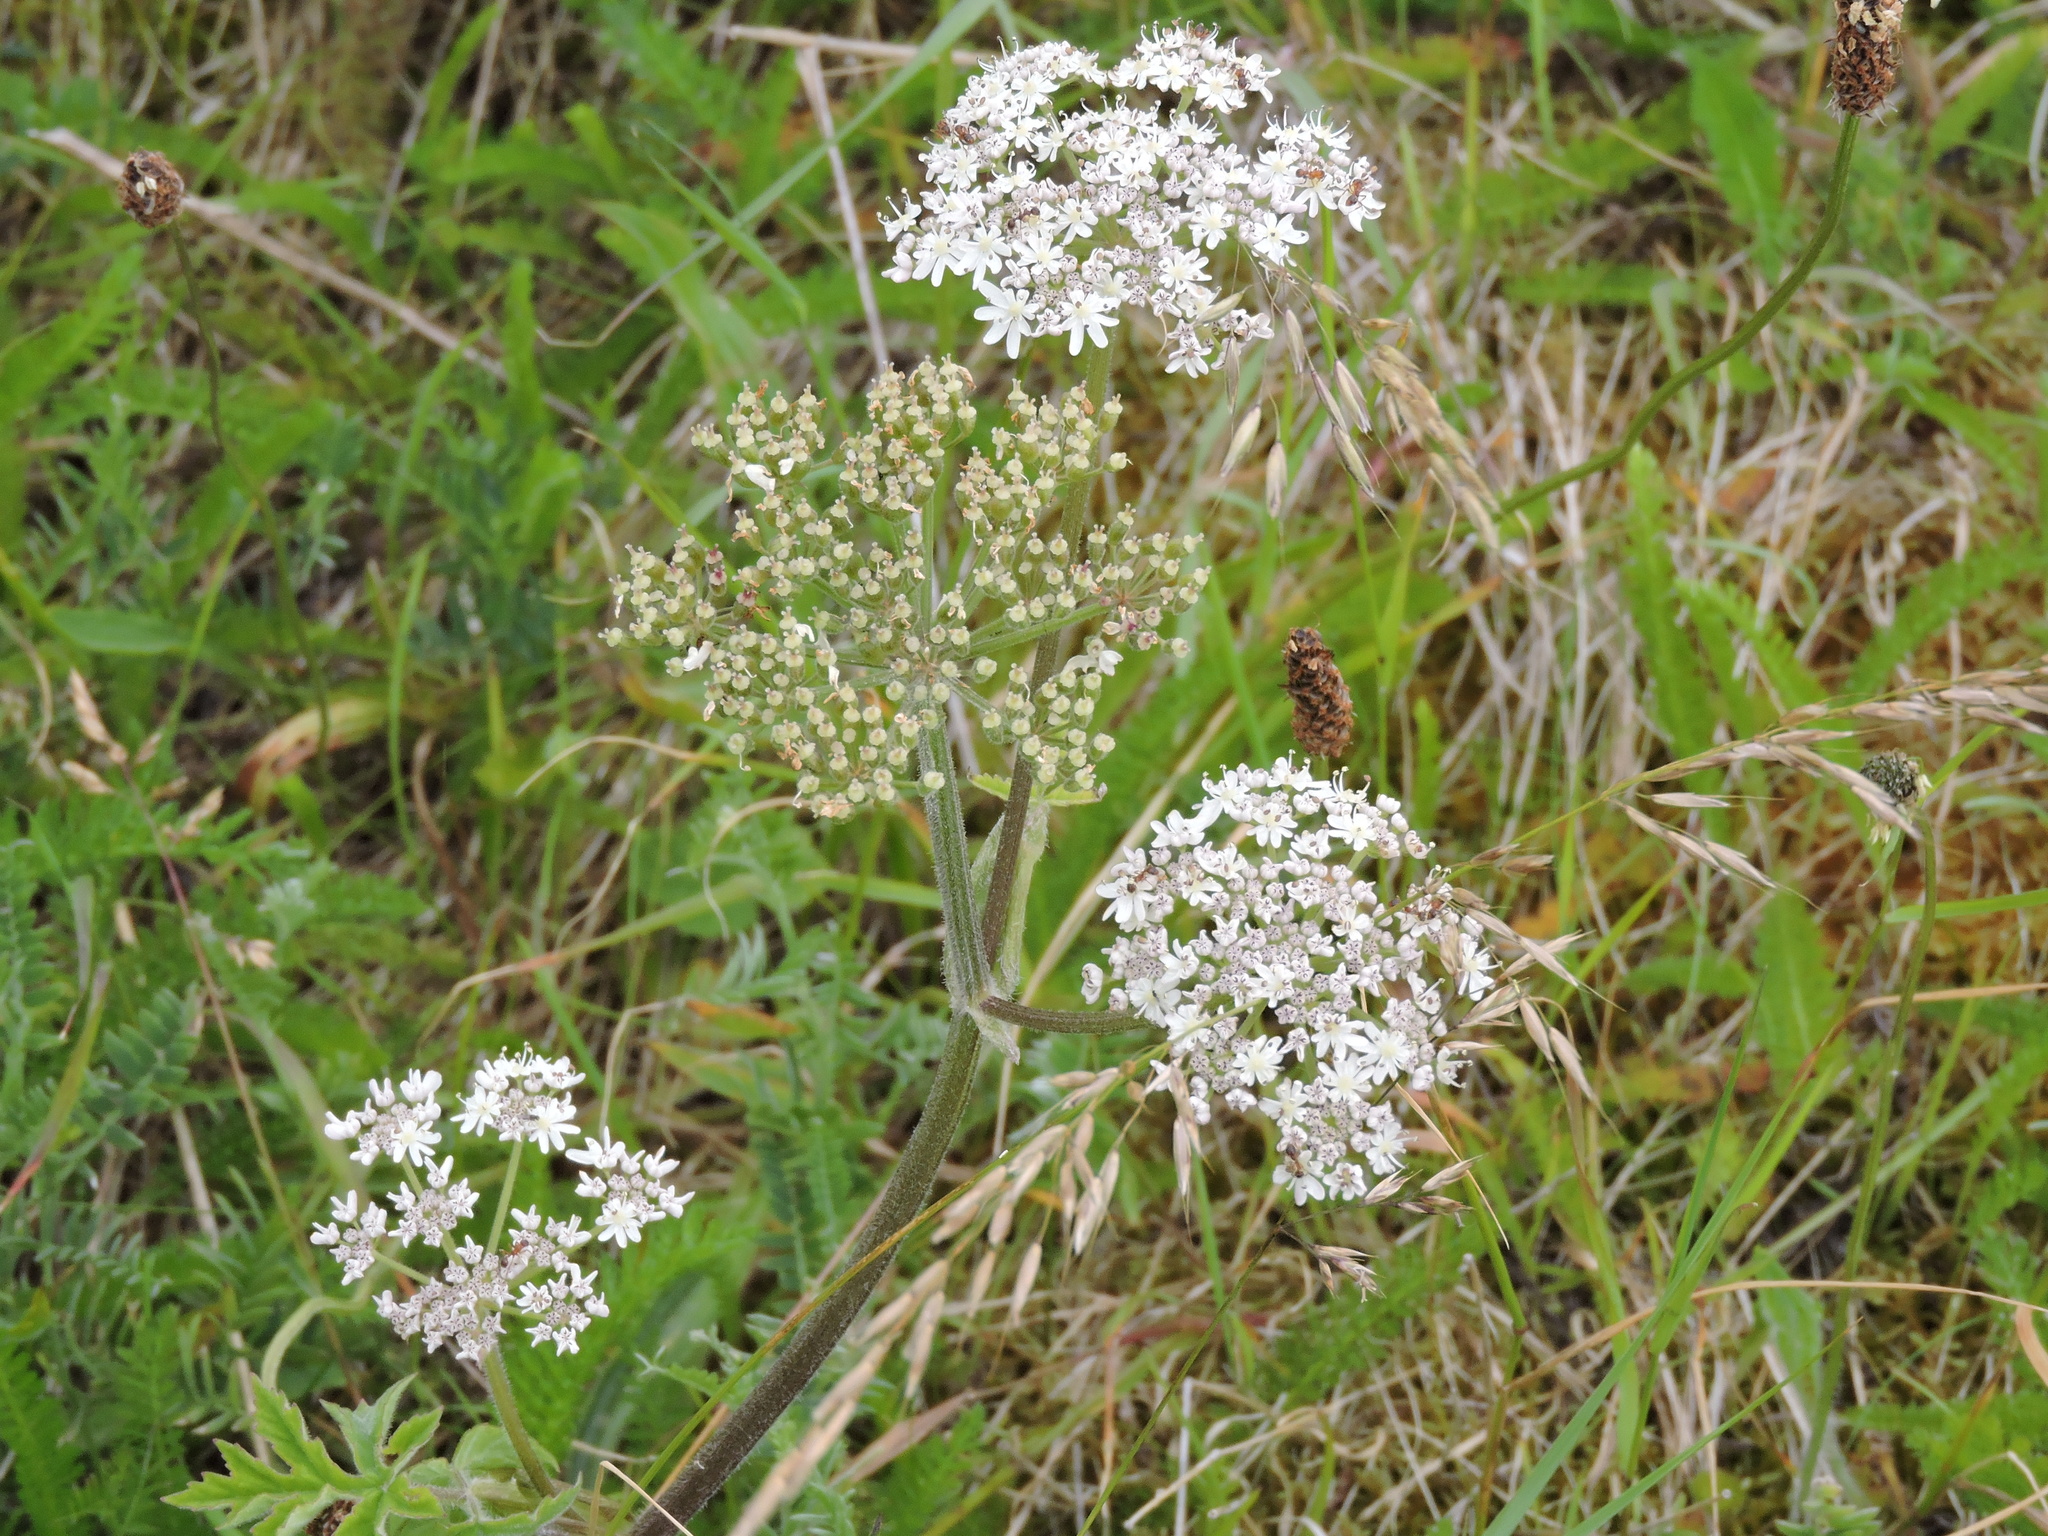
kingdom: Plantae
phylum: Tracheophyta
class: Magnoliopsida
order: Apiales
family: Apiaceae
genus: Heracleum
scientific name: Heracleum sphondylium
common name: Hogweed
